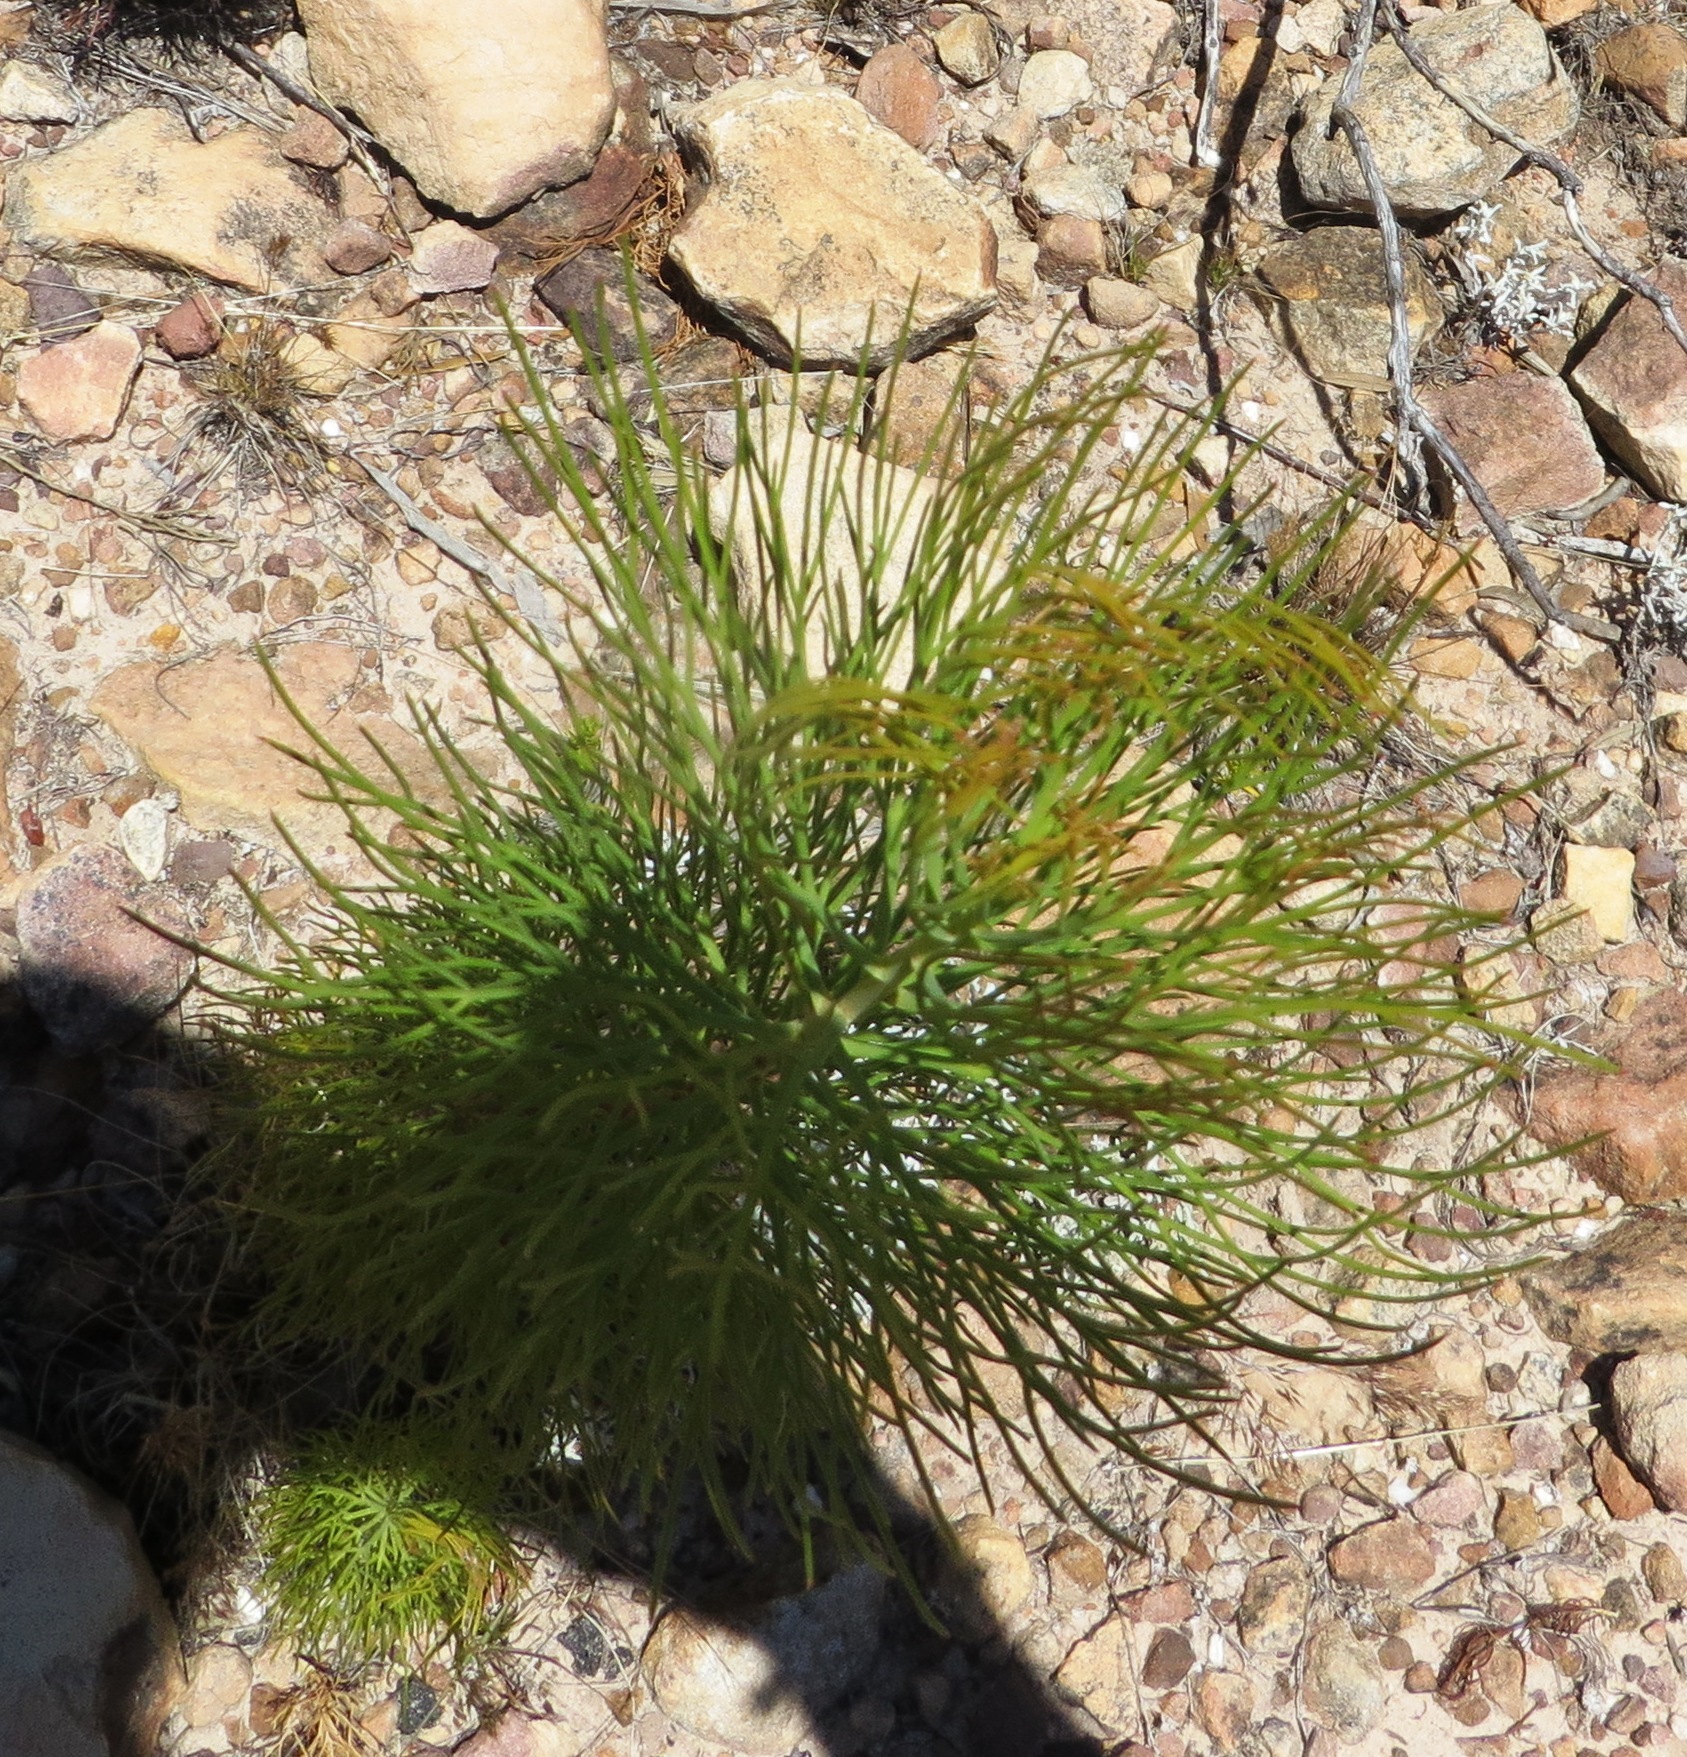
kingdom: Plantae
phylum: Tracheophyta
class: Magnoliopsida
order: Proteales
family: Proteaceae
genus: Serruria
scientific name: Serruria florida
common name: Blushing bride
